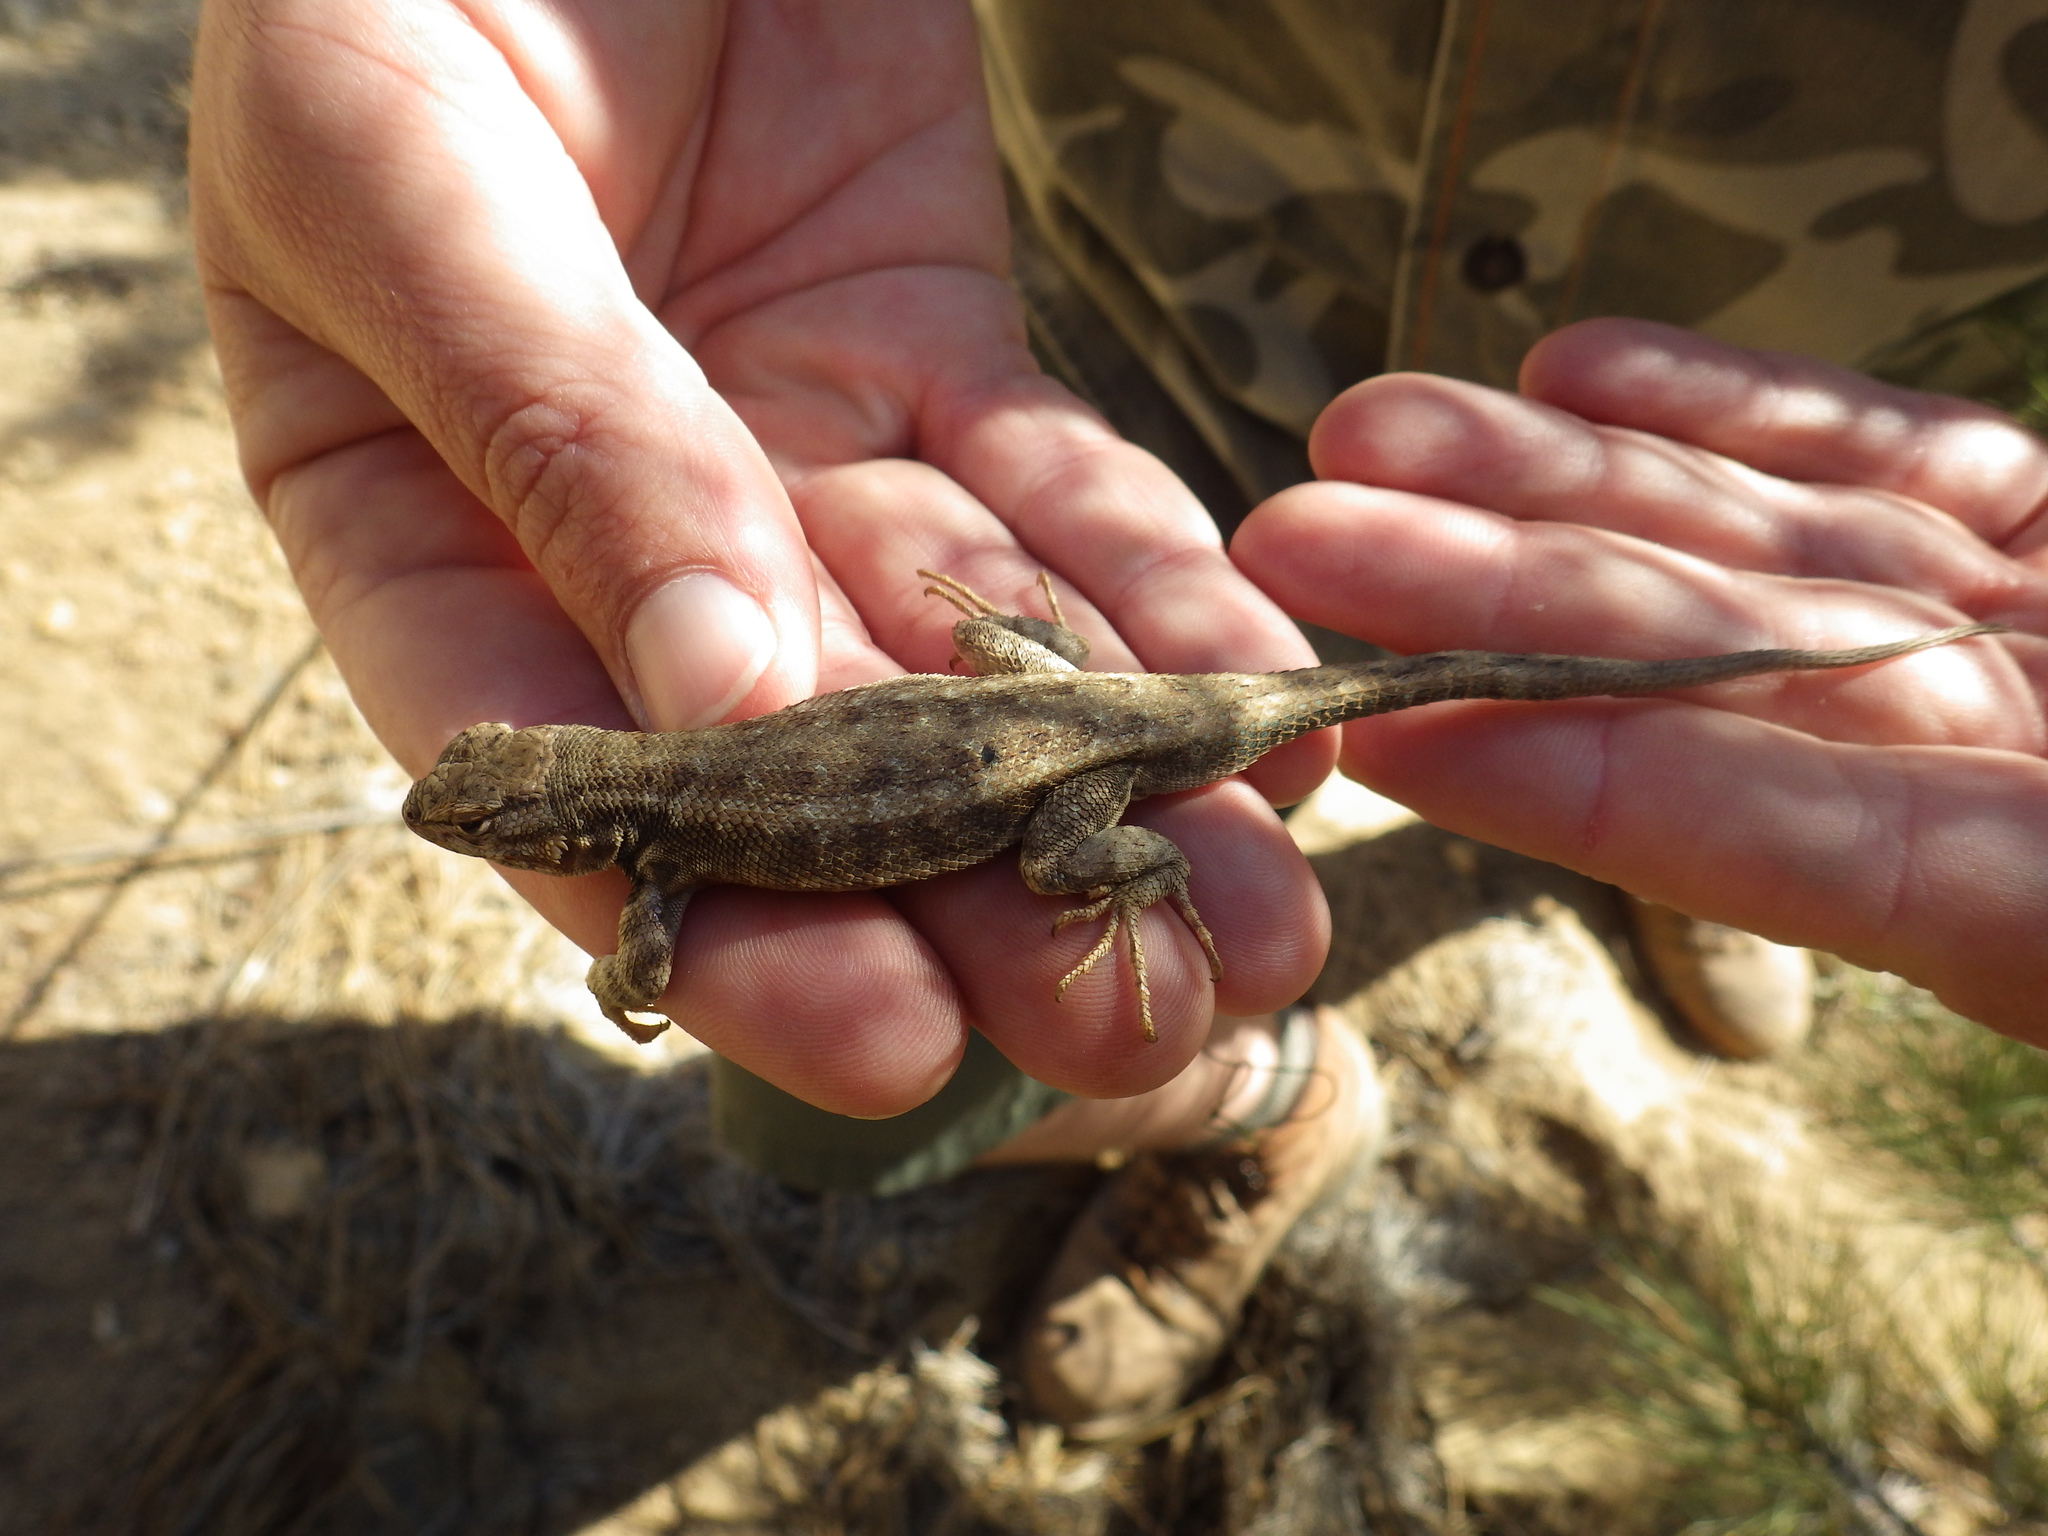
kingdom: Animalia
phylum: Chordata
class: Squamata
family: Phrynosomatidae
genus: Sceloporus
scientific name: Sceloporus graciosus
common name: Sagebrush lizard
